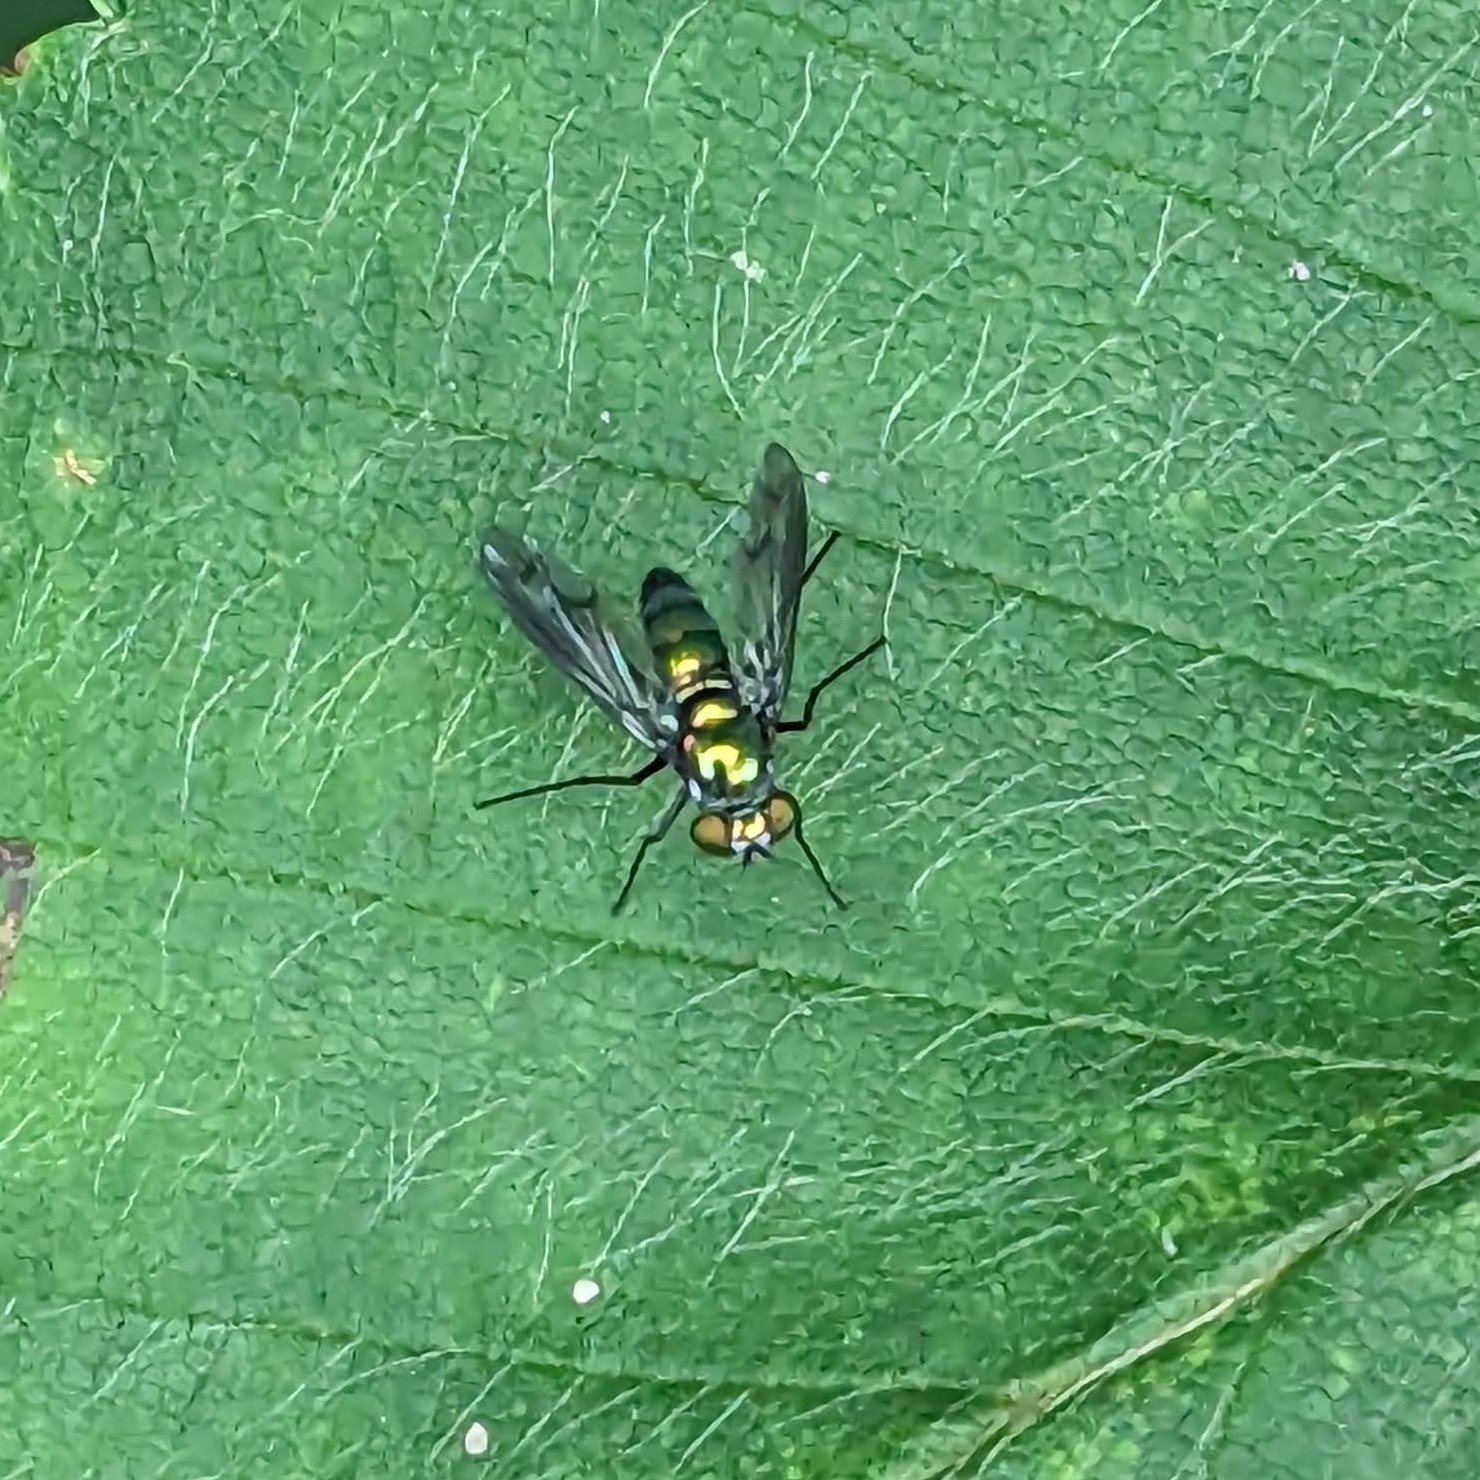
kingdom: Animalia
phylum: Arthropoda
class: Insecta
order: Diptera
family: Dolichopodidae
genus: Condylostylus
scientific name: Condylostylus patibulatus
